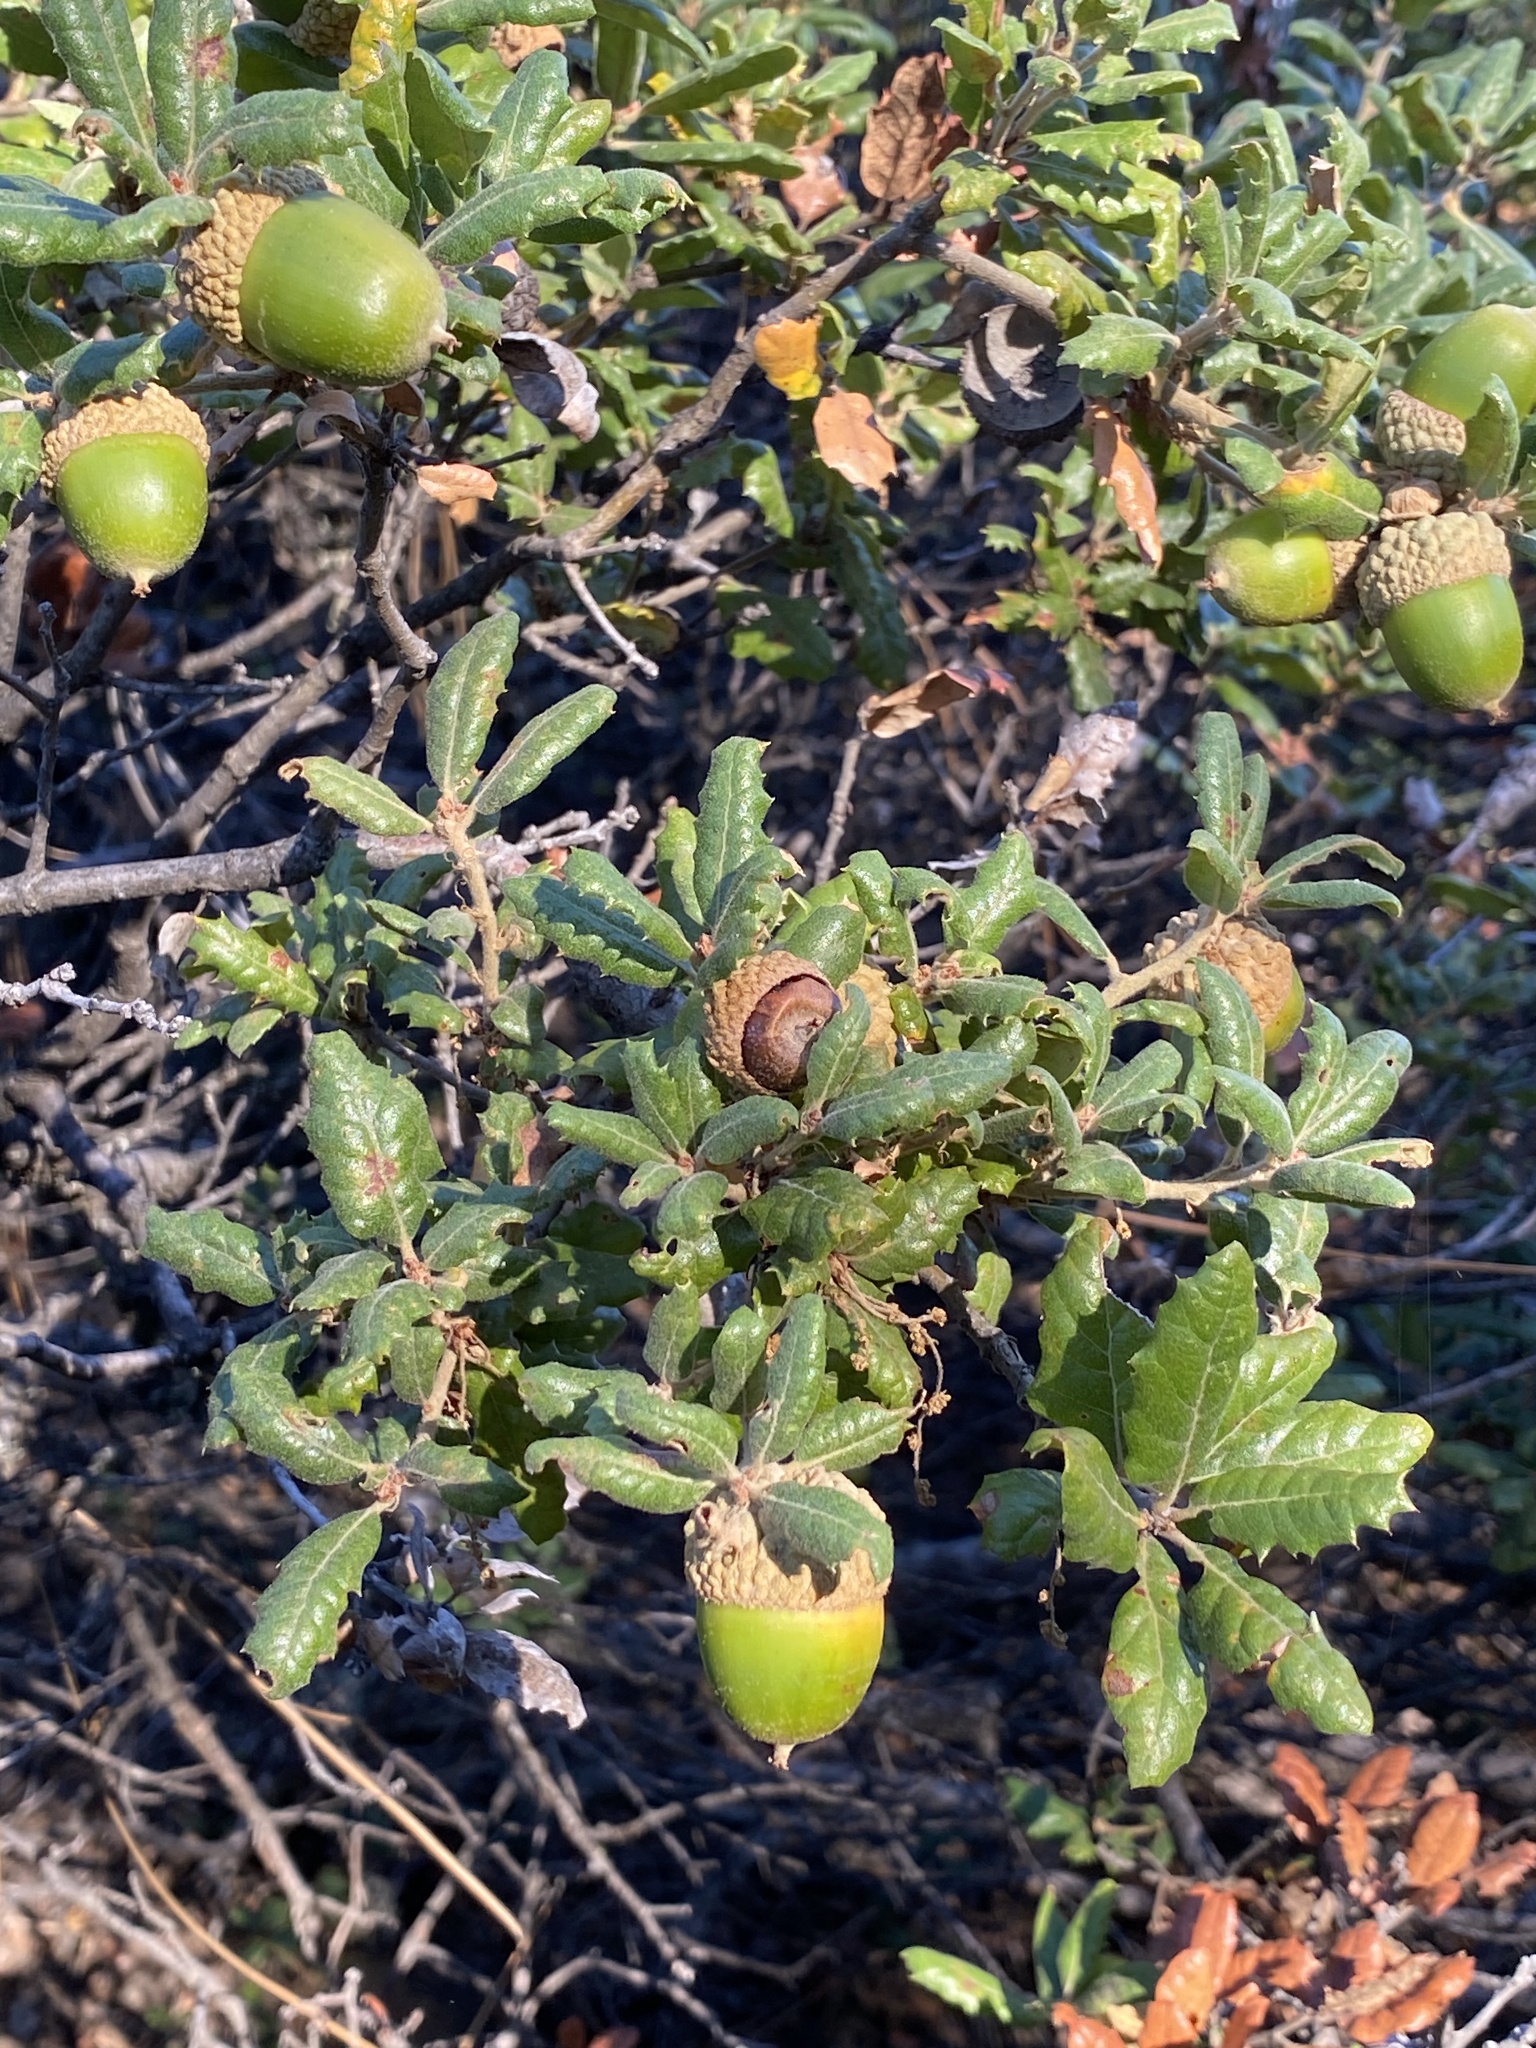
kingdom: Plantae
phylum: Tracheophyta
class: Magnoliopsida
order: Fagales
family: Fagaceae
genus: Quercus
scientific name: Quercus durata
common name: Leather oak
